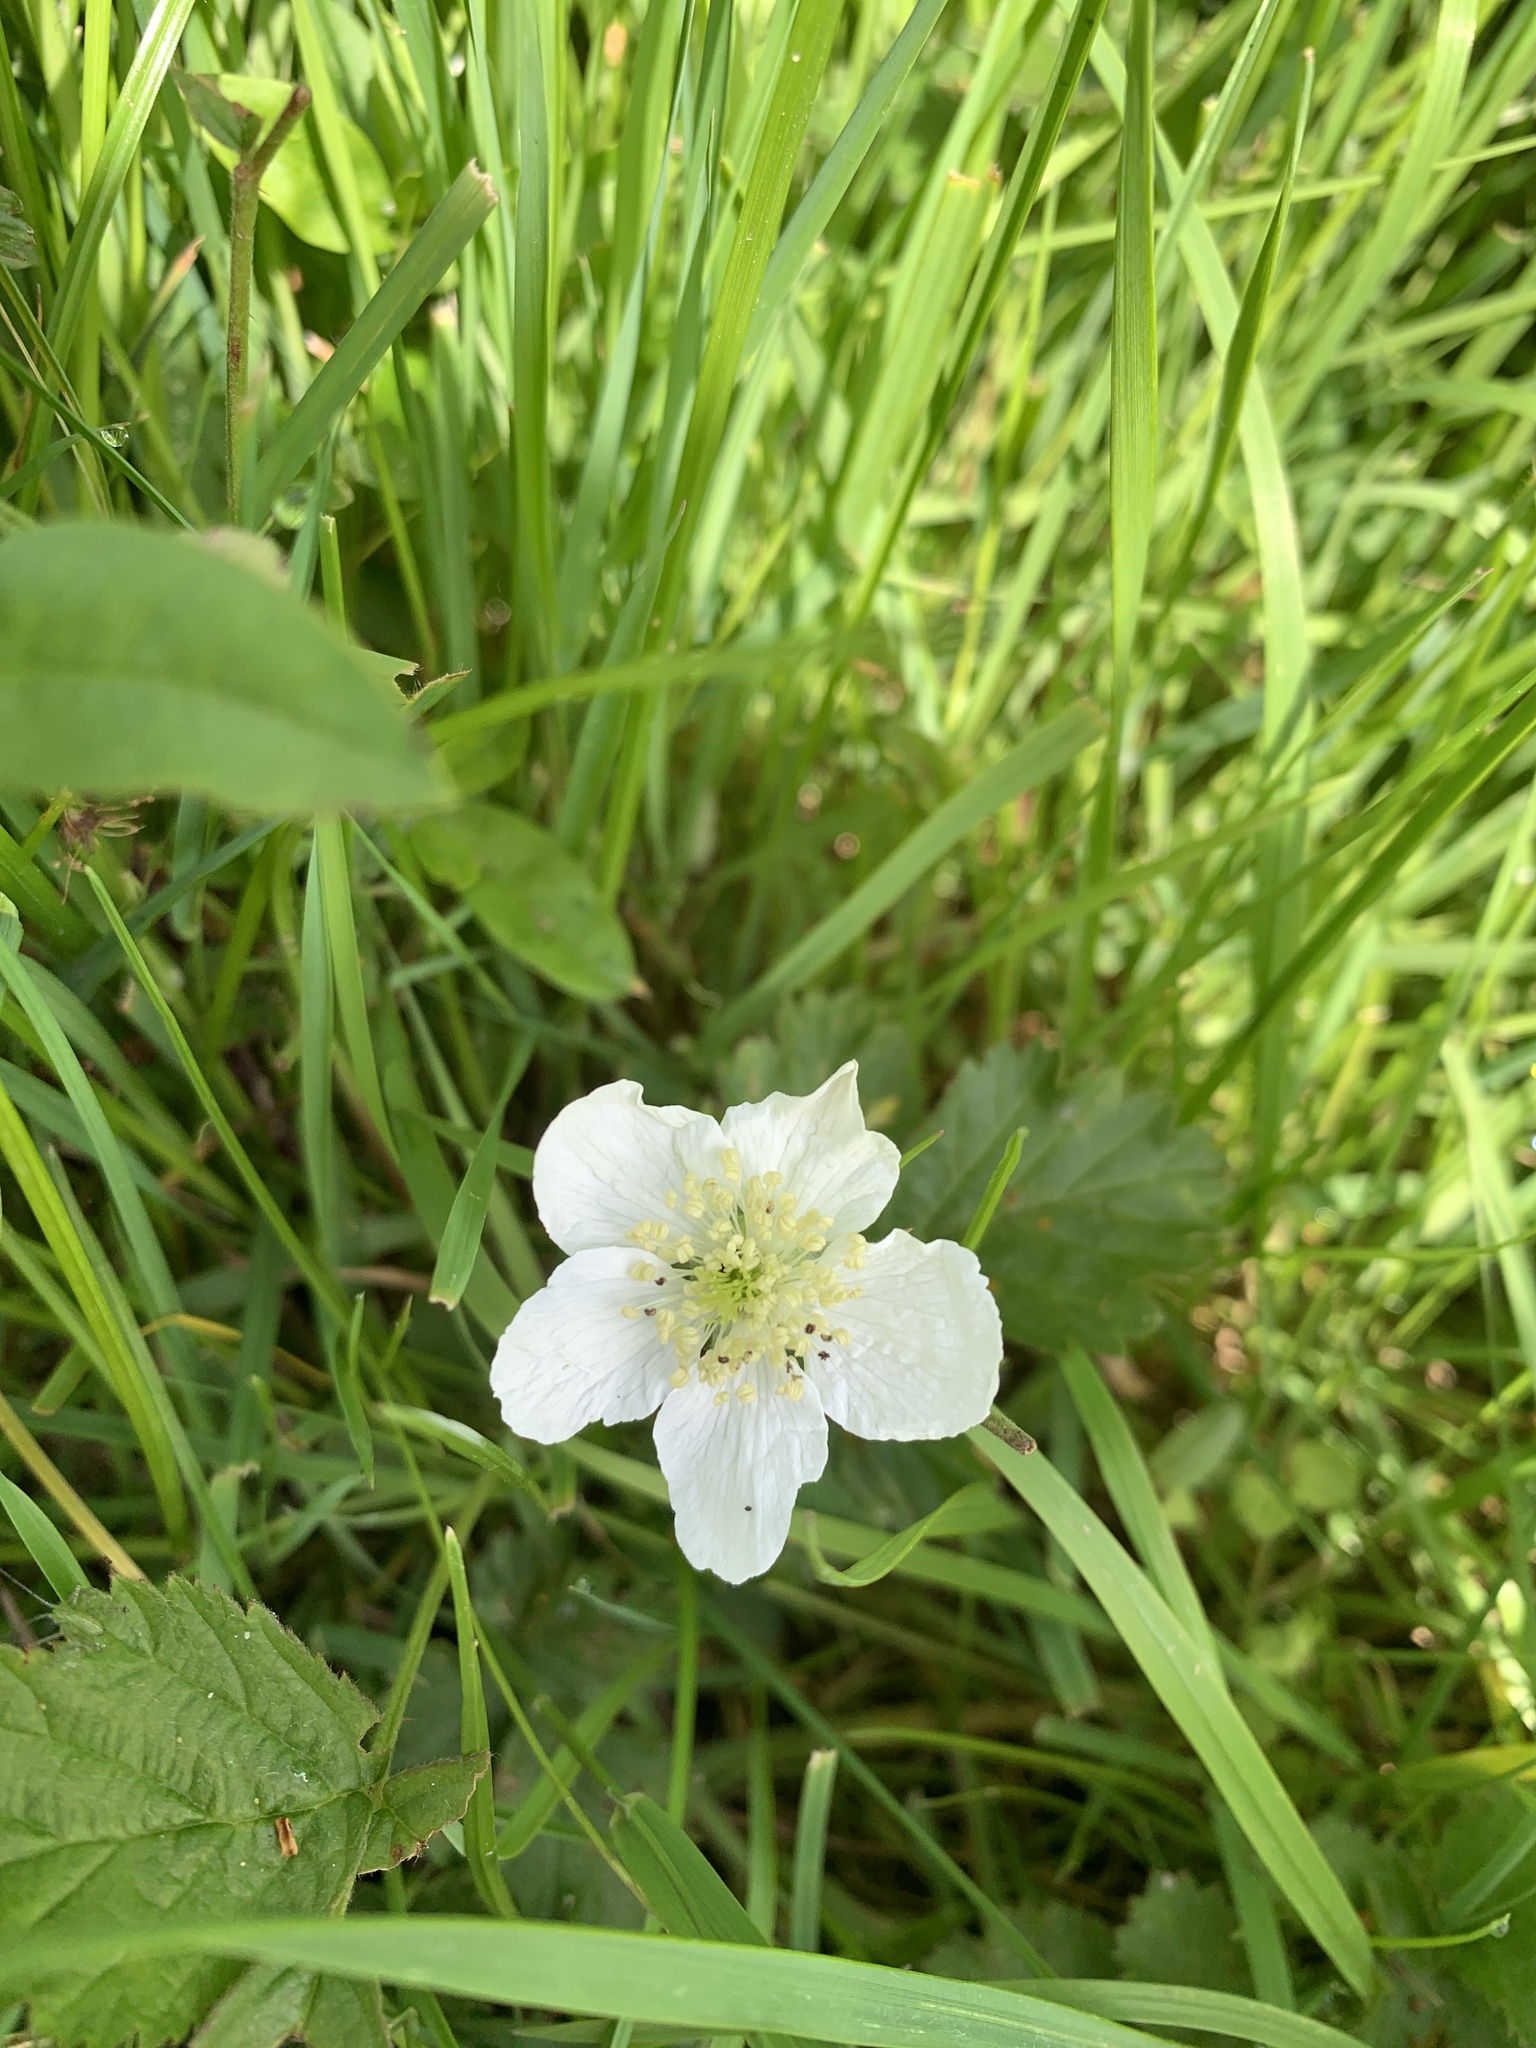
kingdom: Plantae
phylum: Tracheophyta
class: Magnoliopsida
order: Rosales
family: Rosaceae
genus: Rubus
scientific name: Rubus fruticosus
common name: Blackberry, bramble
